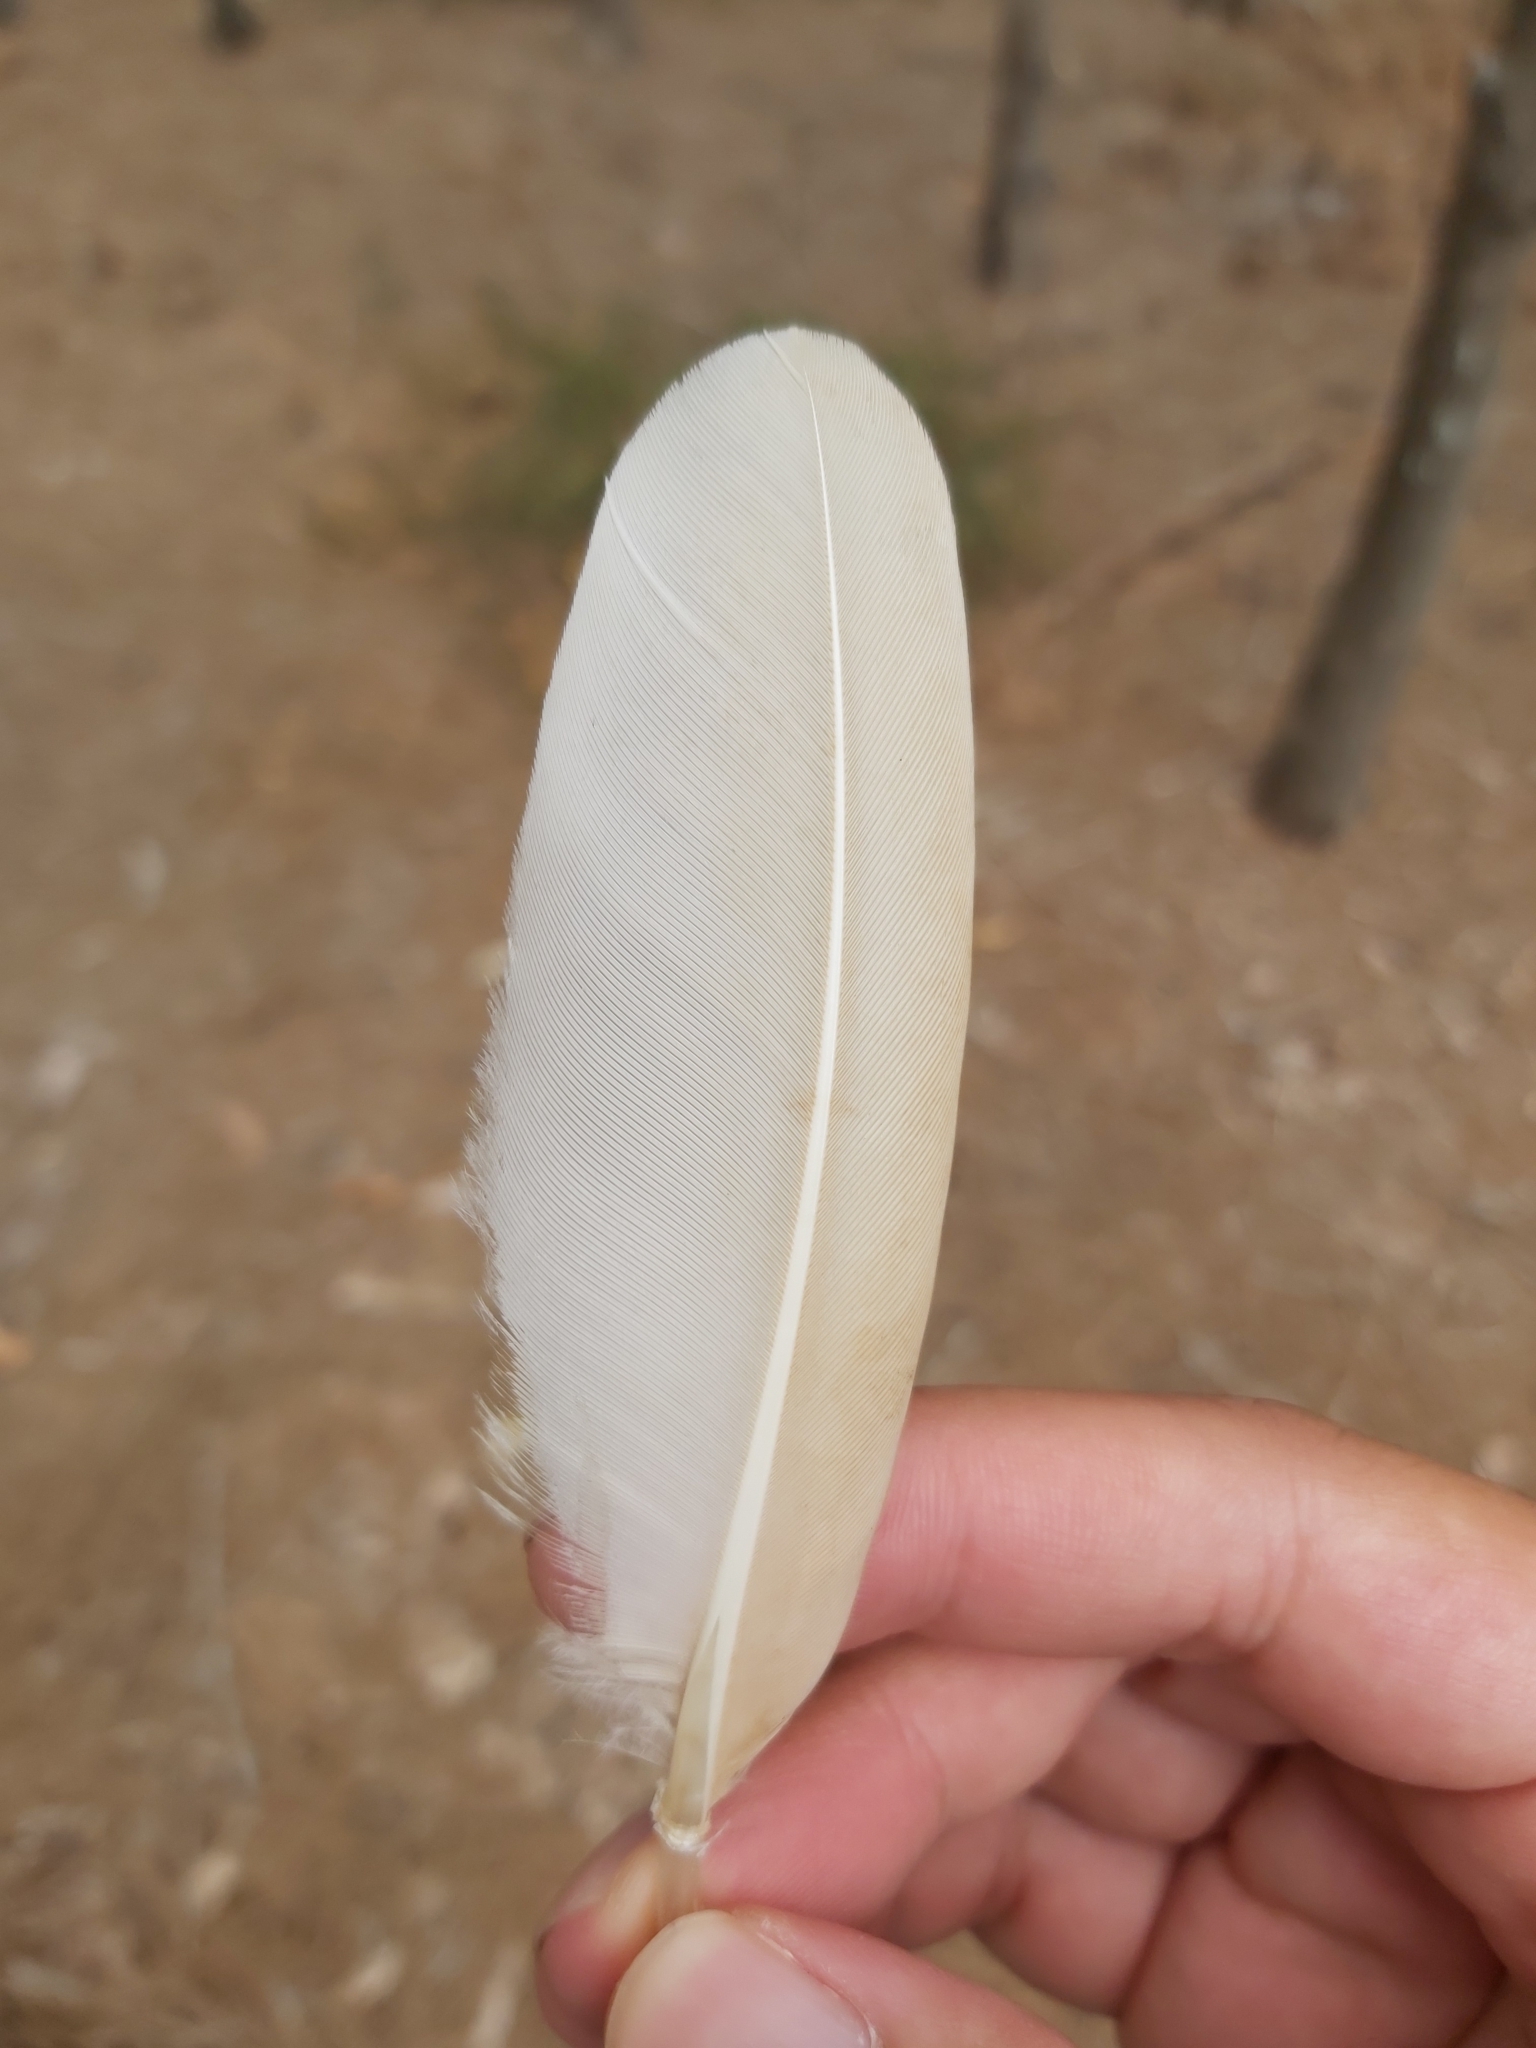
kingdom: Animalia
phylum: Chordata
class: Aves
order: Pelecaniformes
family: Threskiornithidae
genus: Threskiornis
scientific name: Threskiornis molucca
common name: Australian white ibis
